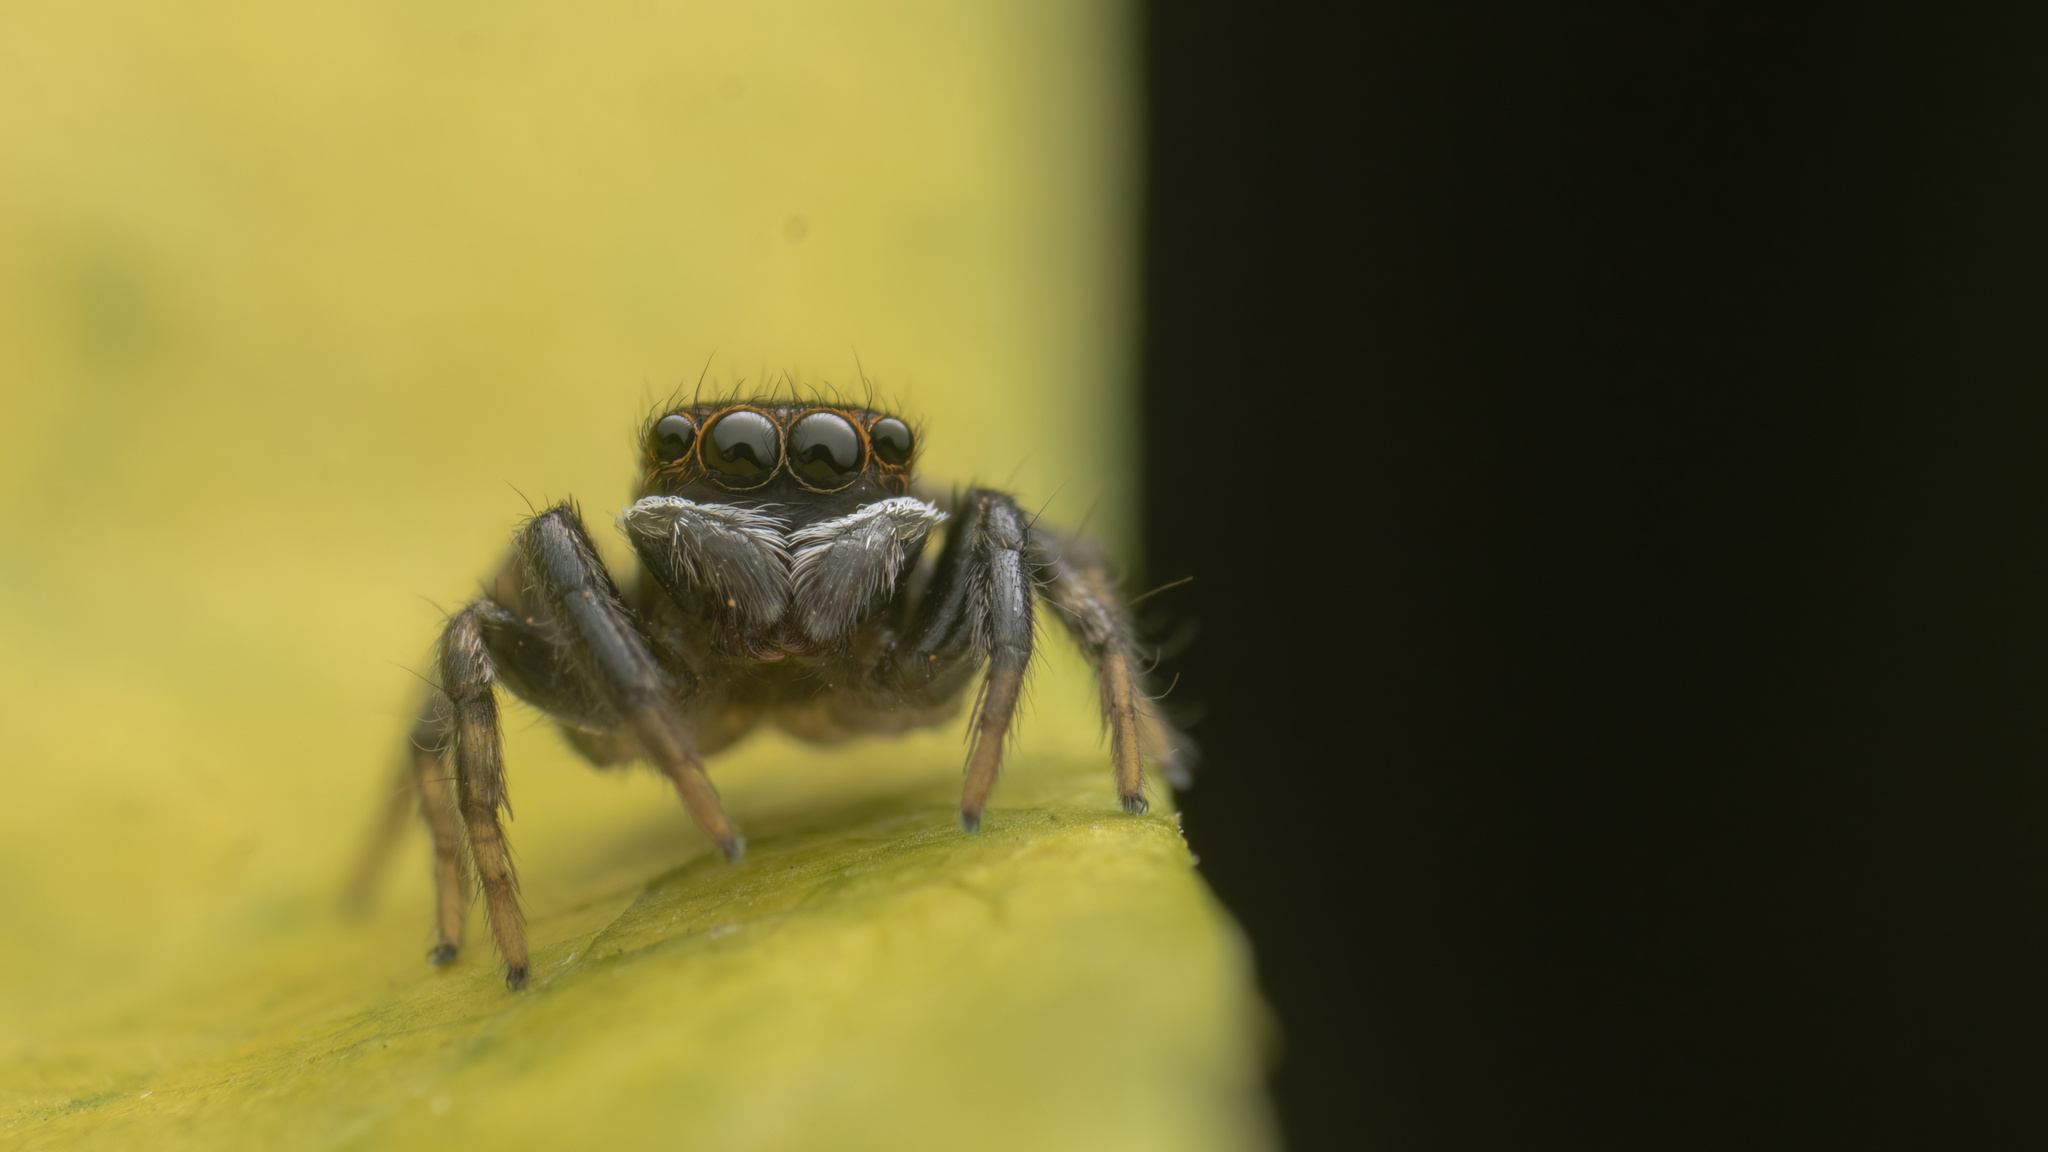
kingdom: Animalia
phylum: Arthropoda
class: Arachnida
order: Araneae
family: Salticidae
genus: Hasarius
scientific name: Hasarius adansoni
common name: Jumping spider
